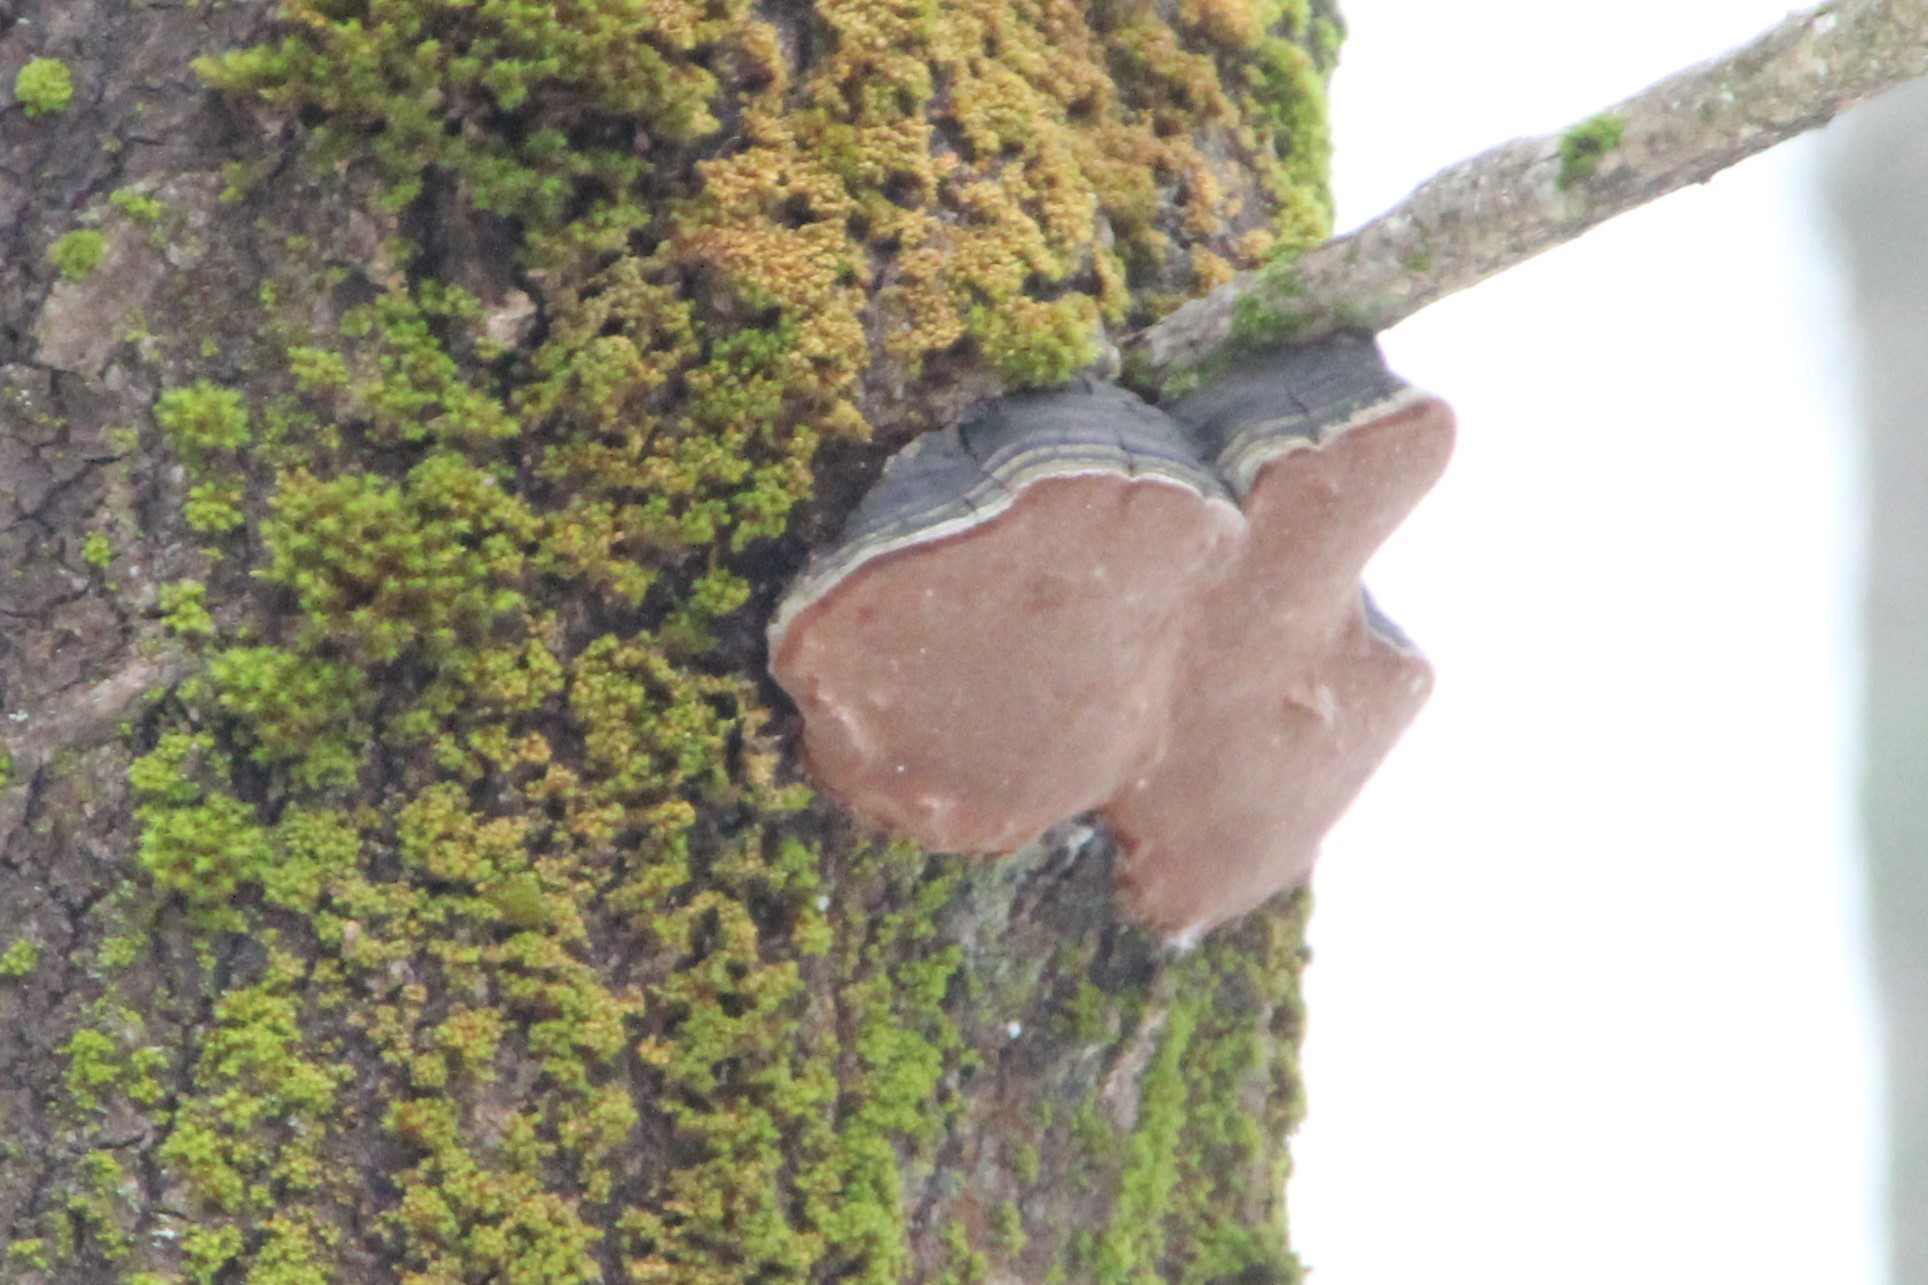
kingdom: Fungi
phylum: Basidiomycota
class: Agaricomycetes
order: Hymenochaetales
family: Hymenochaetaceae
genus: Phellinus
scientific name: Phellinus tremulae
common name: Aspen bracket
